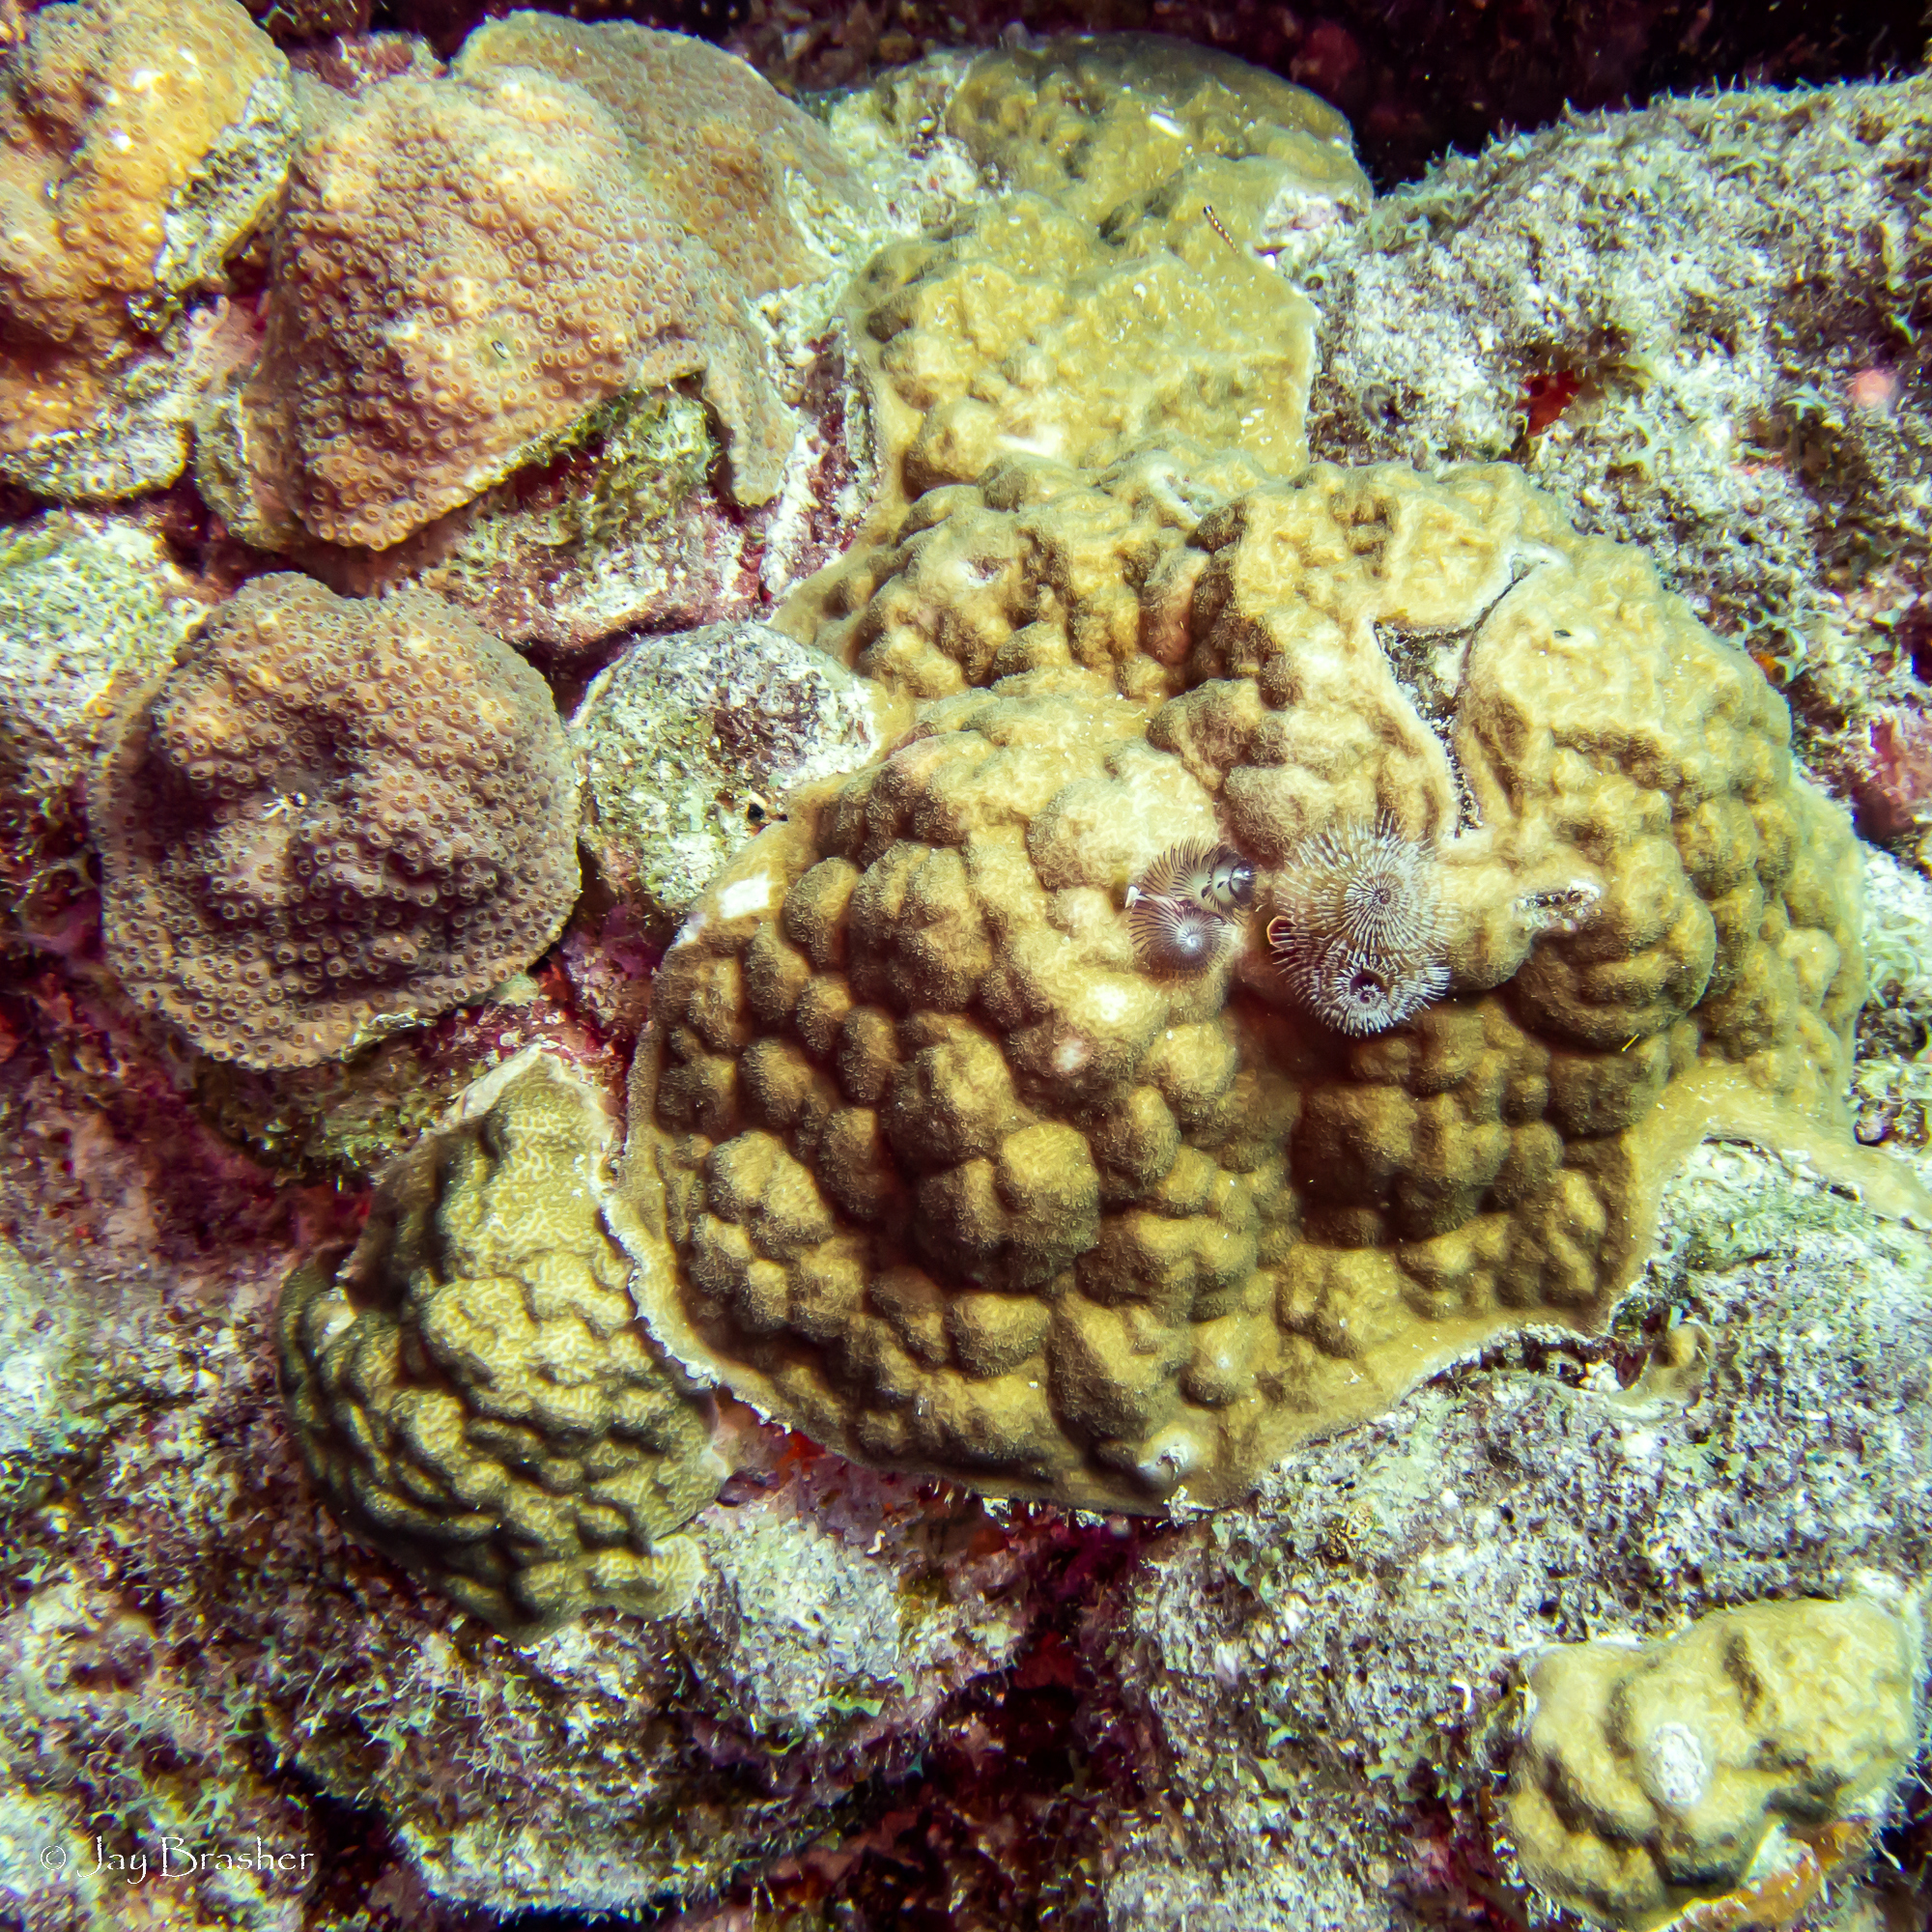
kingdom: Animalia
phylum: Cnidaria
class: Anthozoa
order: Scleractinia
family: Poritidae
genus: Porites
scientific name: Porites astreoides
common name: Mustard hill coral
